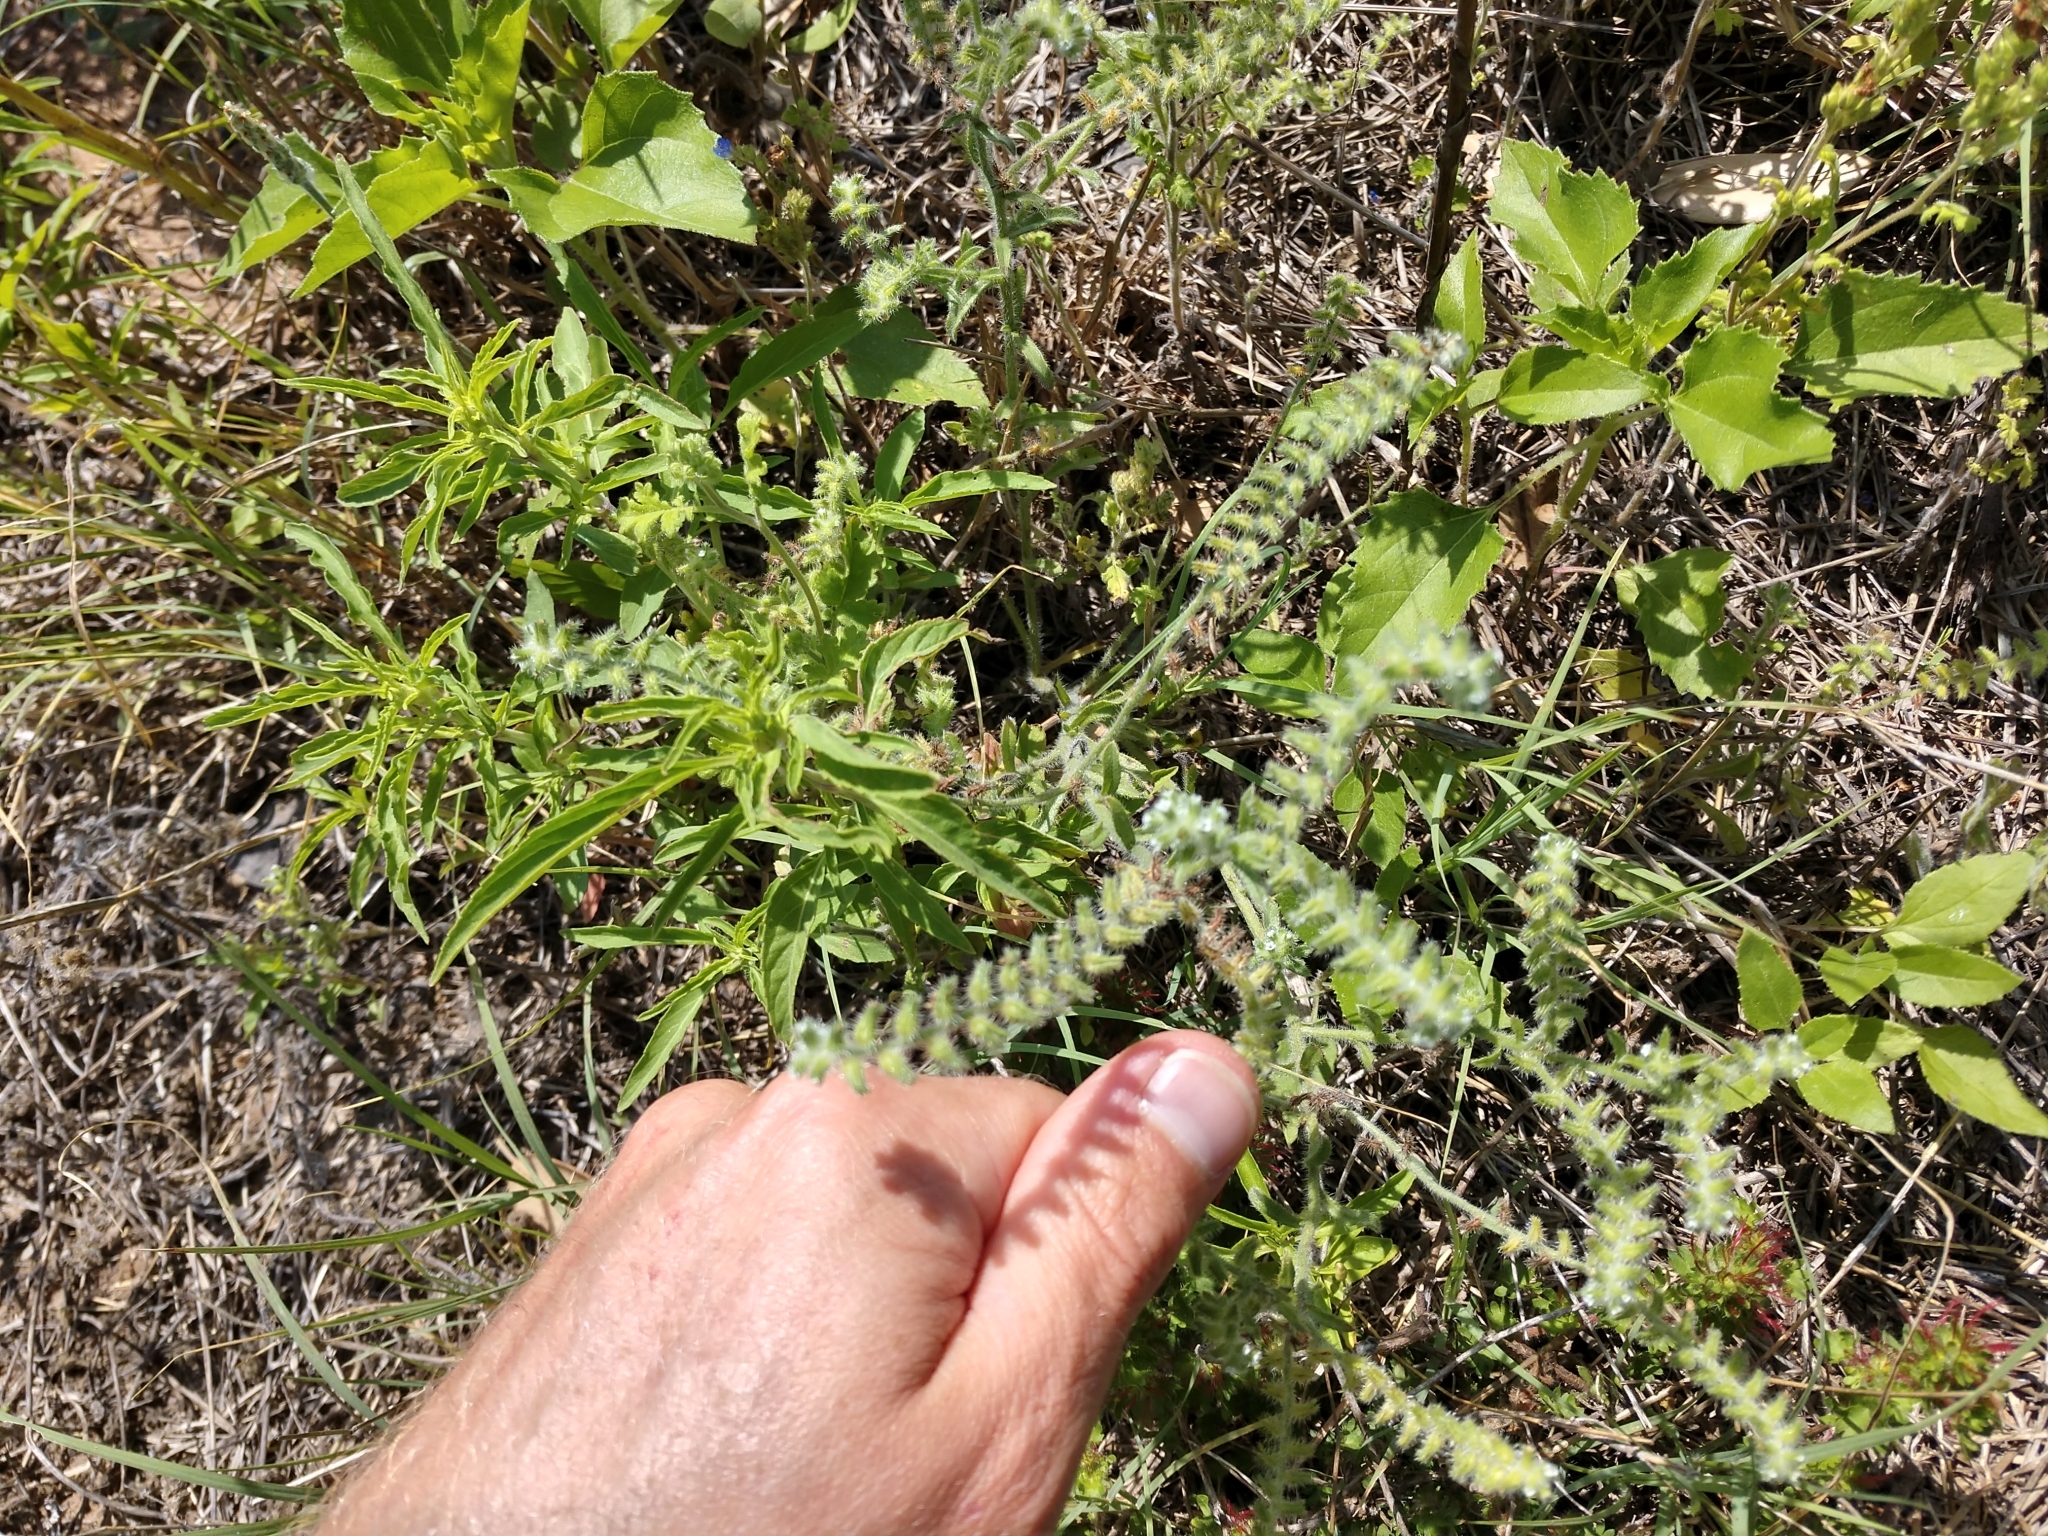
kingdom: Plantae
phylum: Tracheophyta
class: Magnoliopsida
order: Boraginales
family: Boraginaceae
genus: Cryptantha
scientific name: Cryptantha texana
